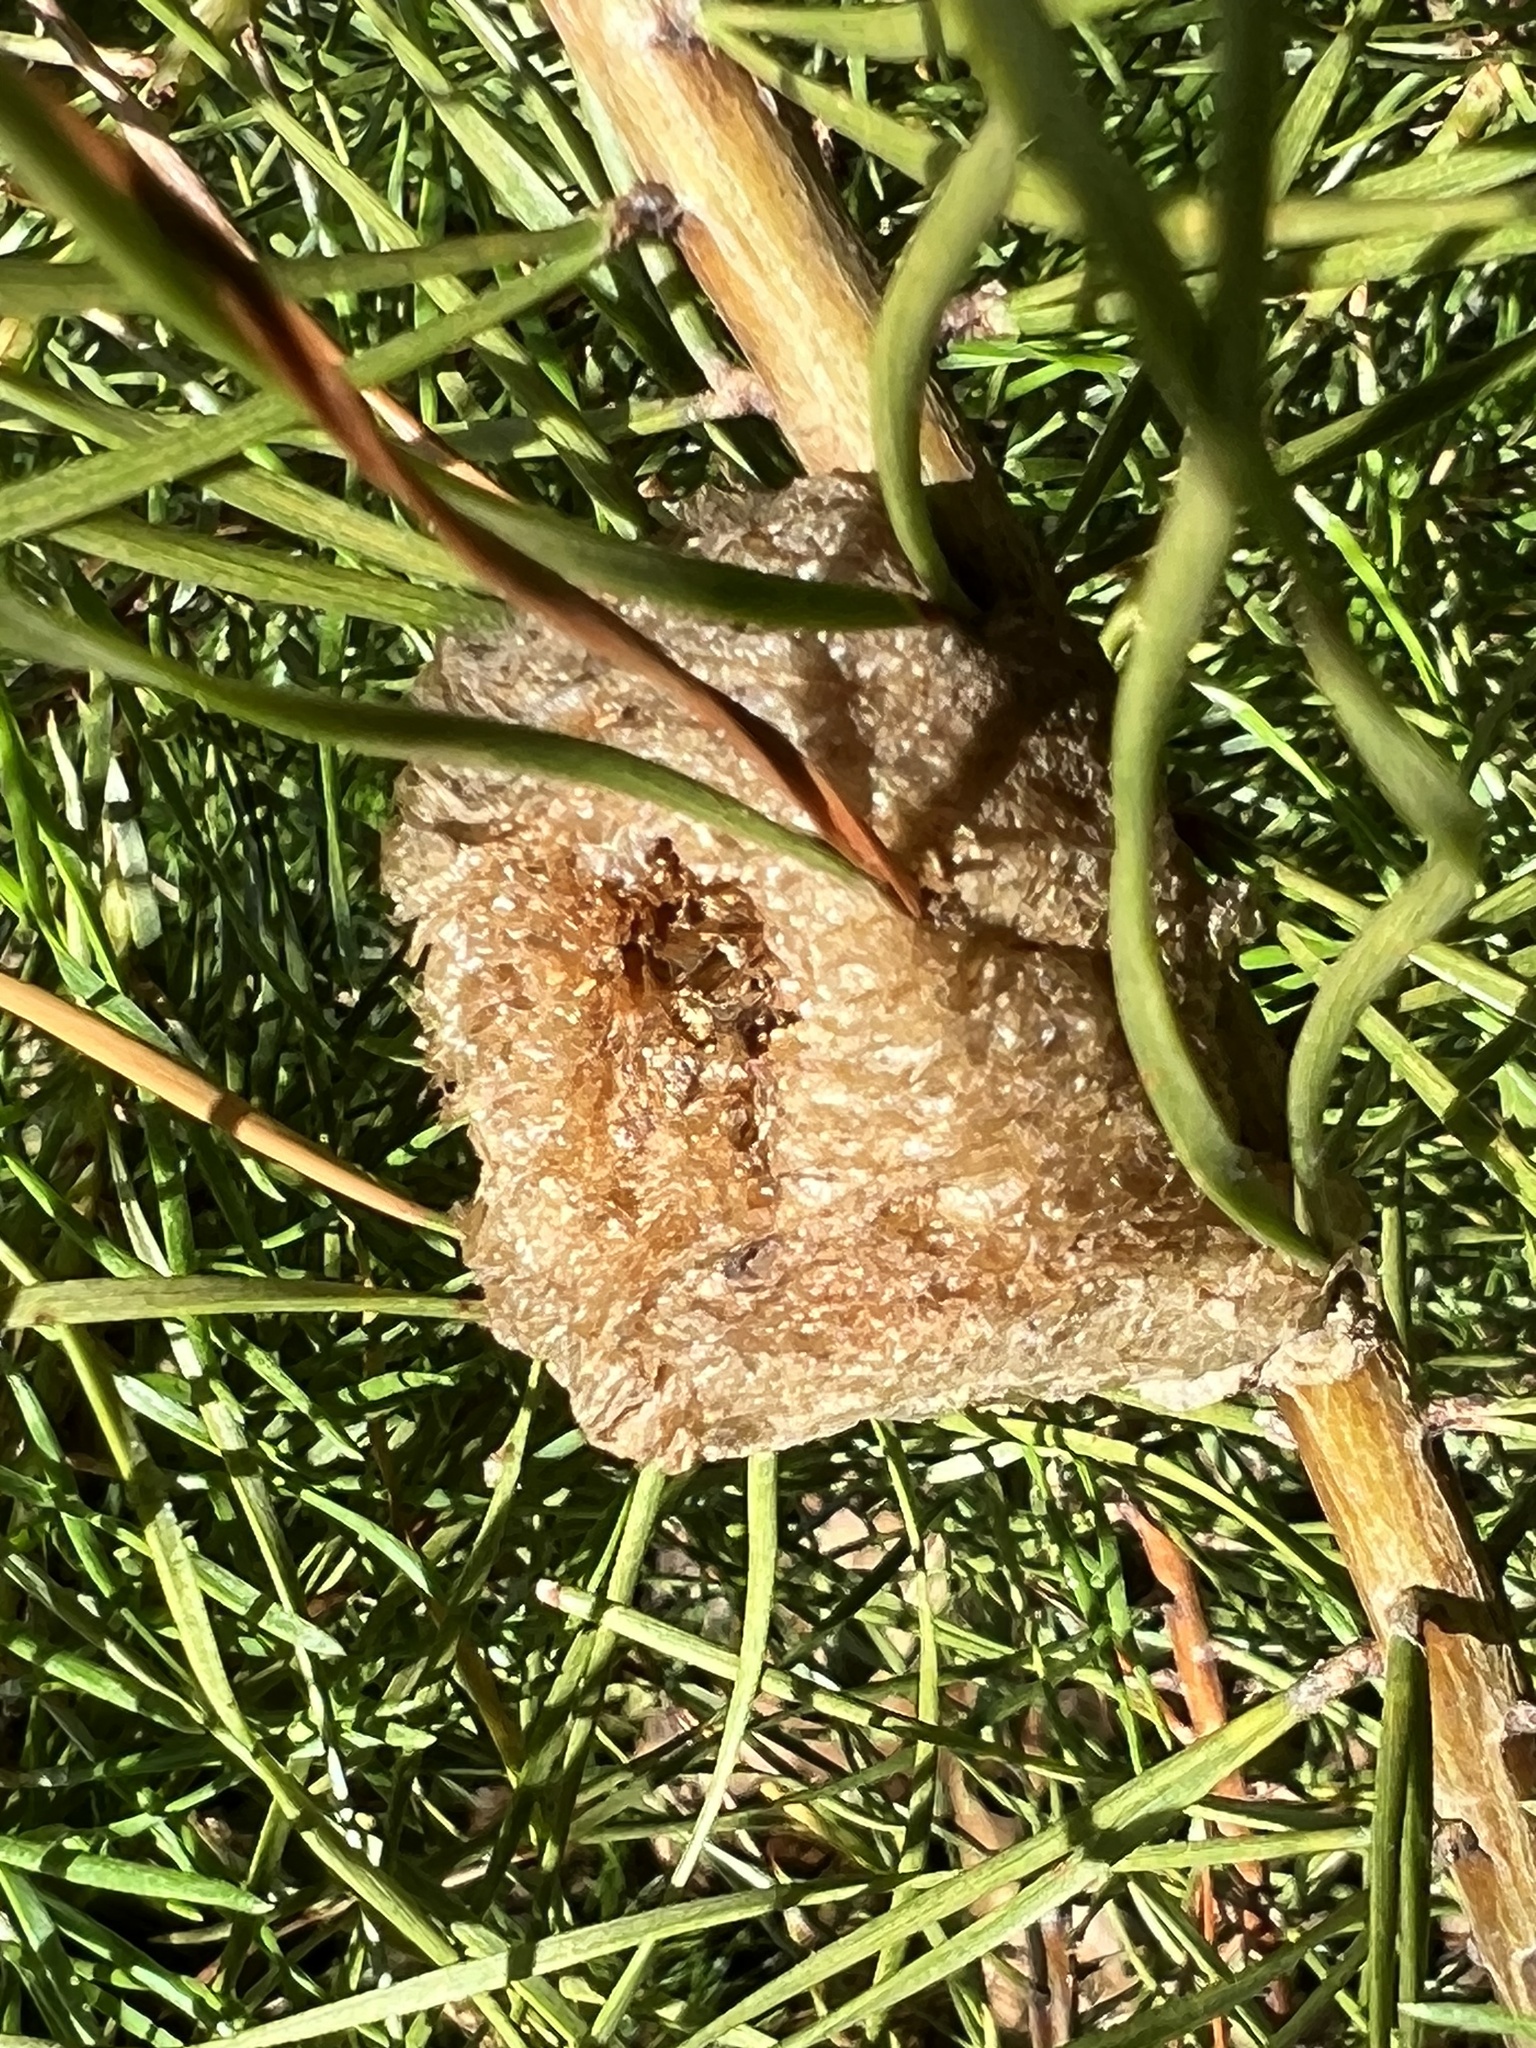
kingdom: Animalia
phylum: Arthropoda
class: Insecta
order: Mantodea
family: Mantidae
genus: Tenodera
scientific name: Tenodera sinensis
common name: Chinese mantis
